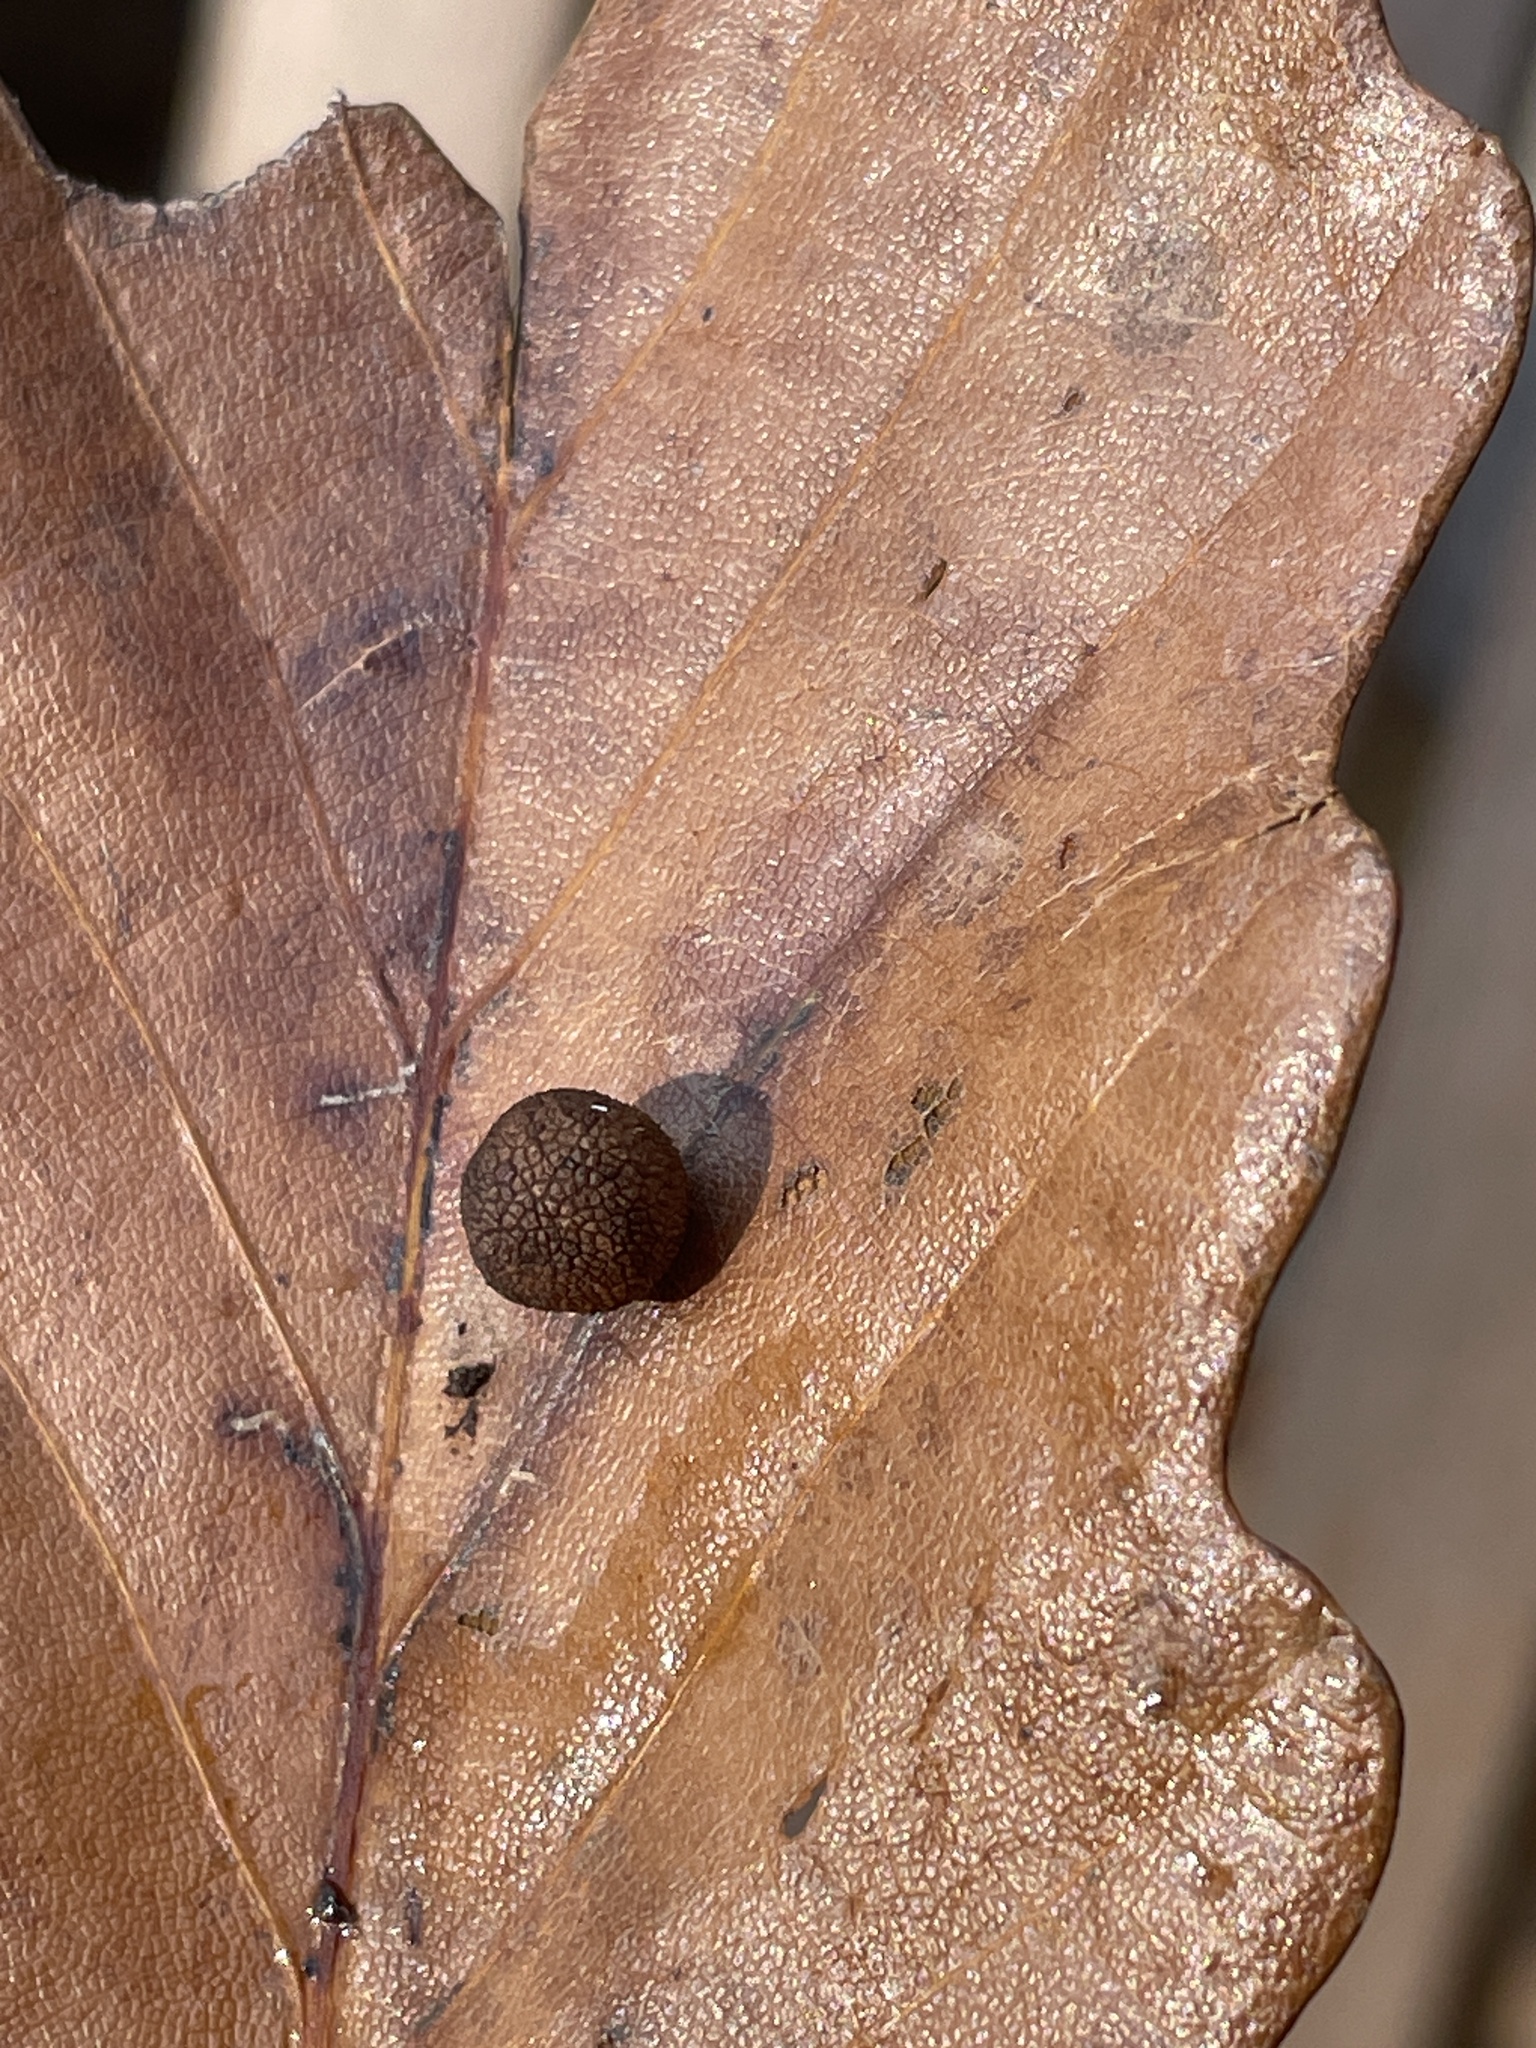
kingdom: Animalia
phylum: Arthropoda
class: Insecta
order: Hymenoptera
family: Cynipidae
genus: Acraspis
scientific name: Acraspis quercushirta
